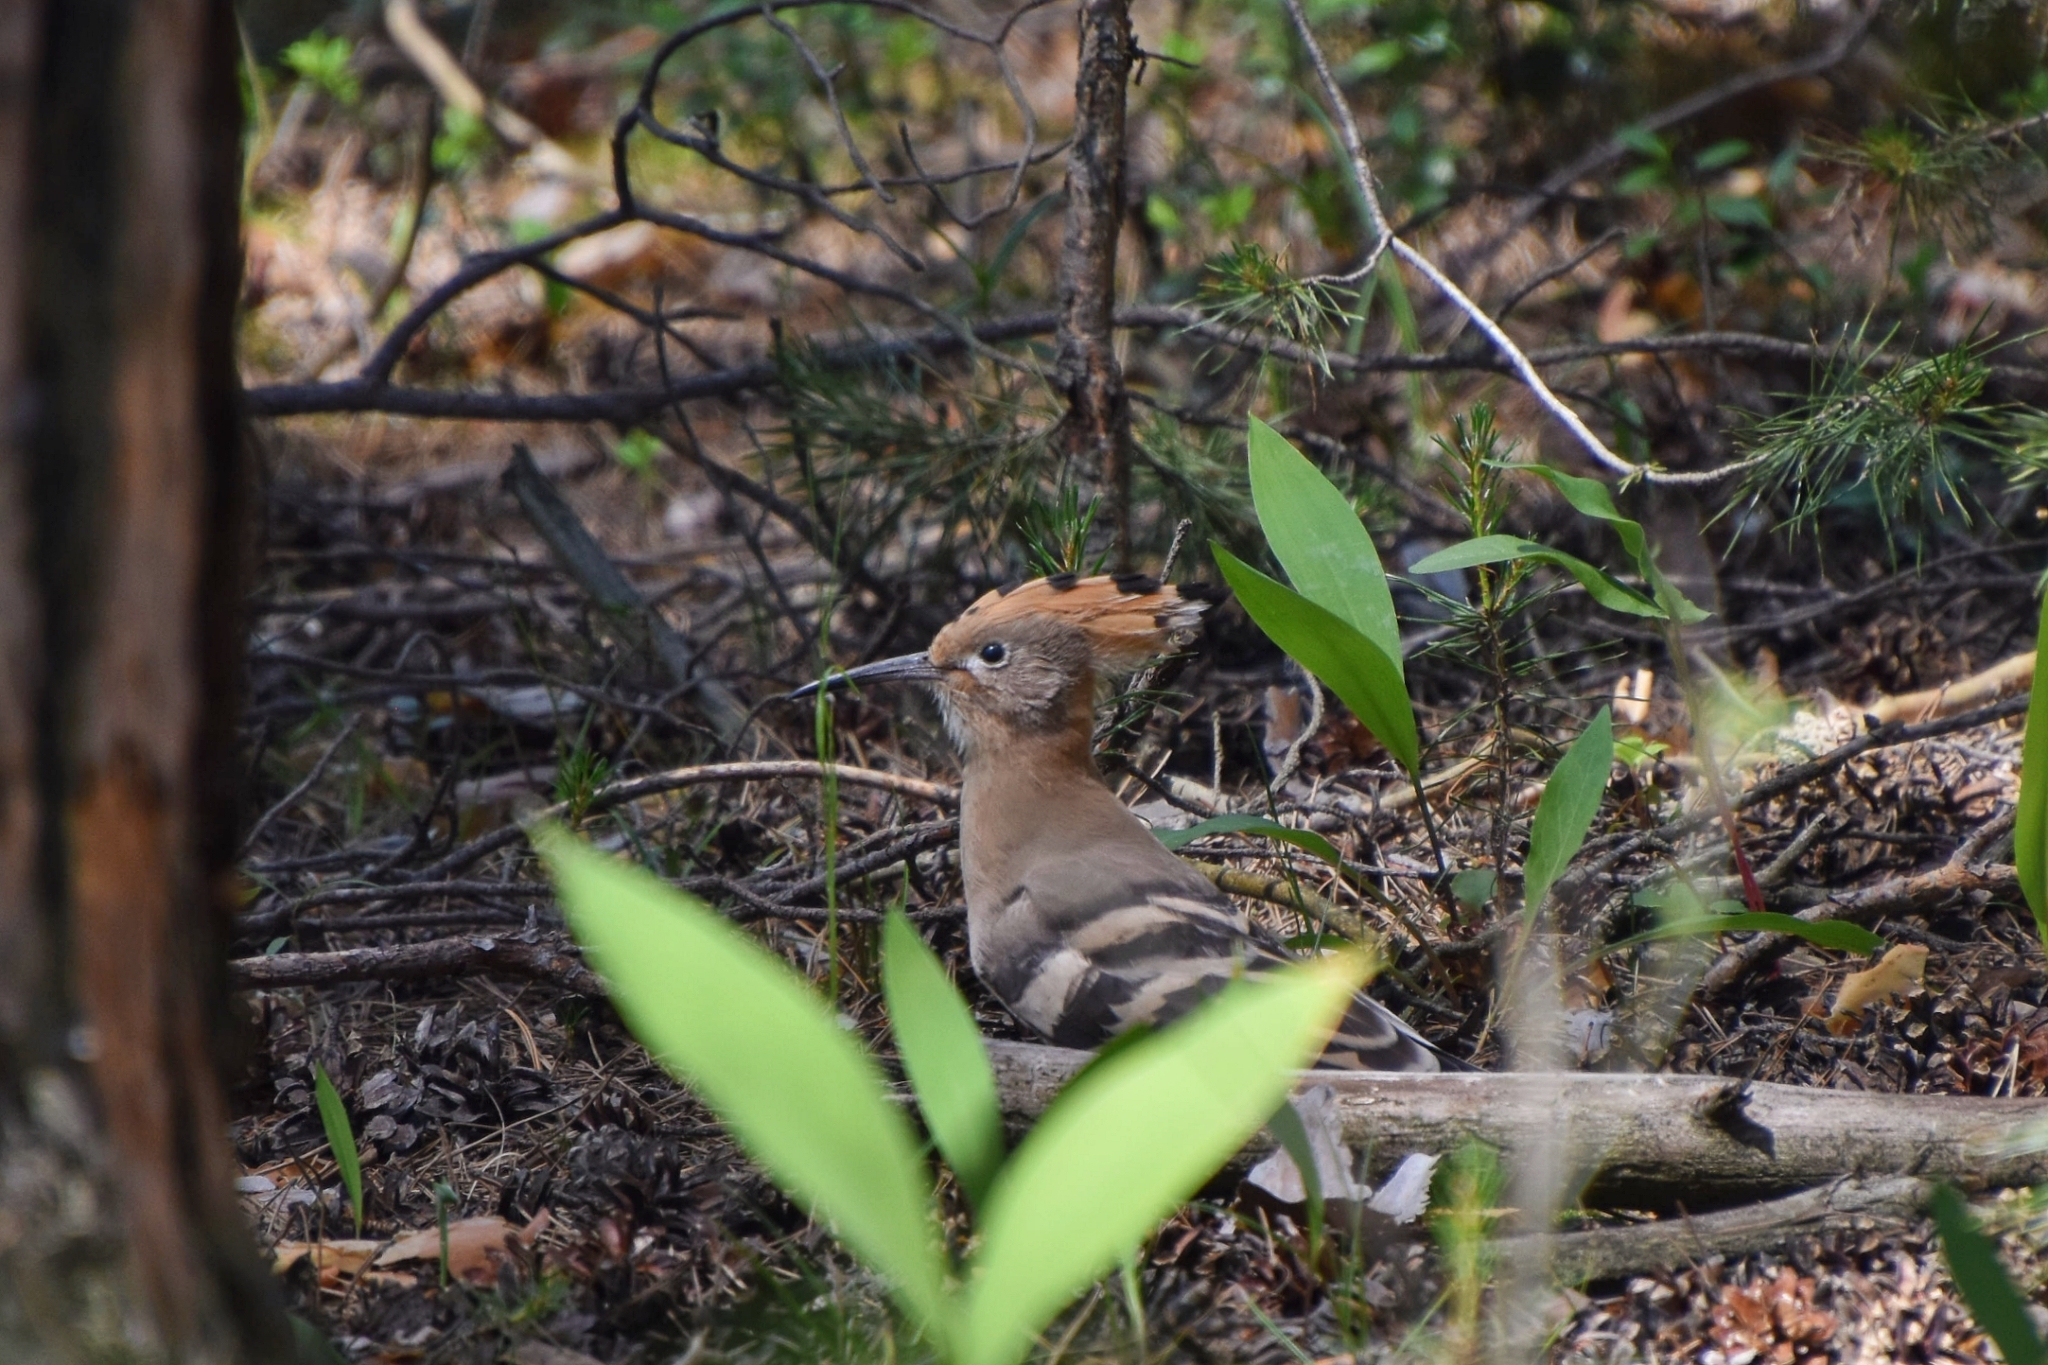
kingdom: Animalia
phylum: Chordata
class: Aves
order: Bucerotiformes
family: Upupidae
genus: Upupa
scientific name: Upupa epops
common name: Eurasian hoopoe
